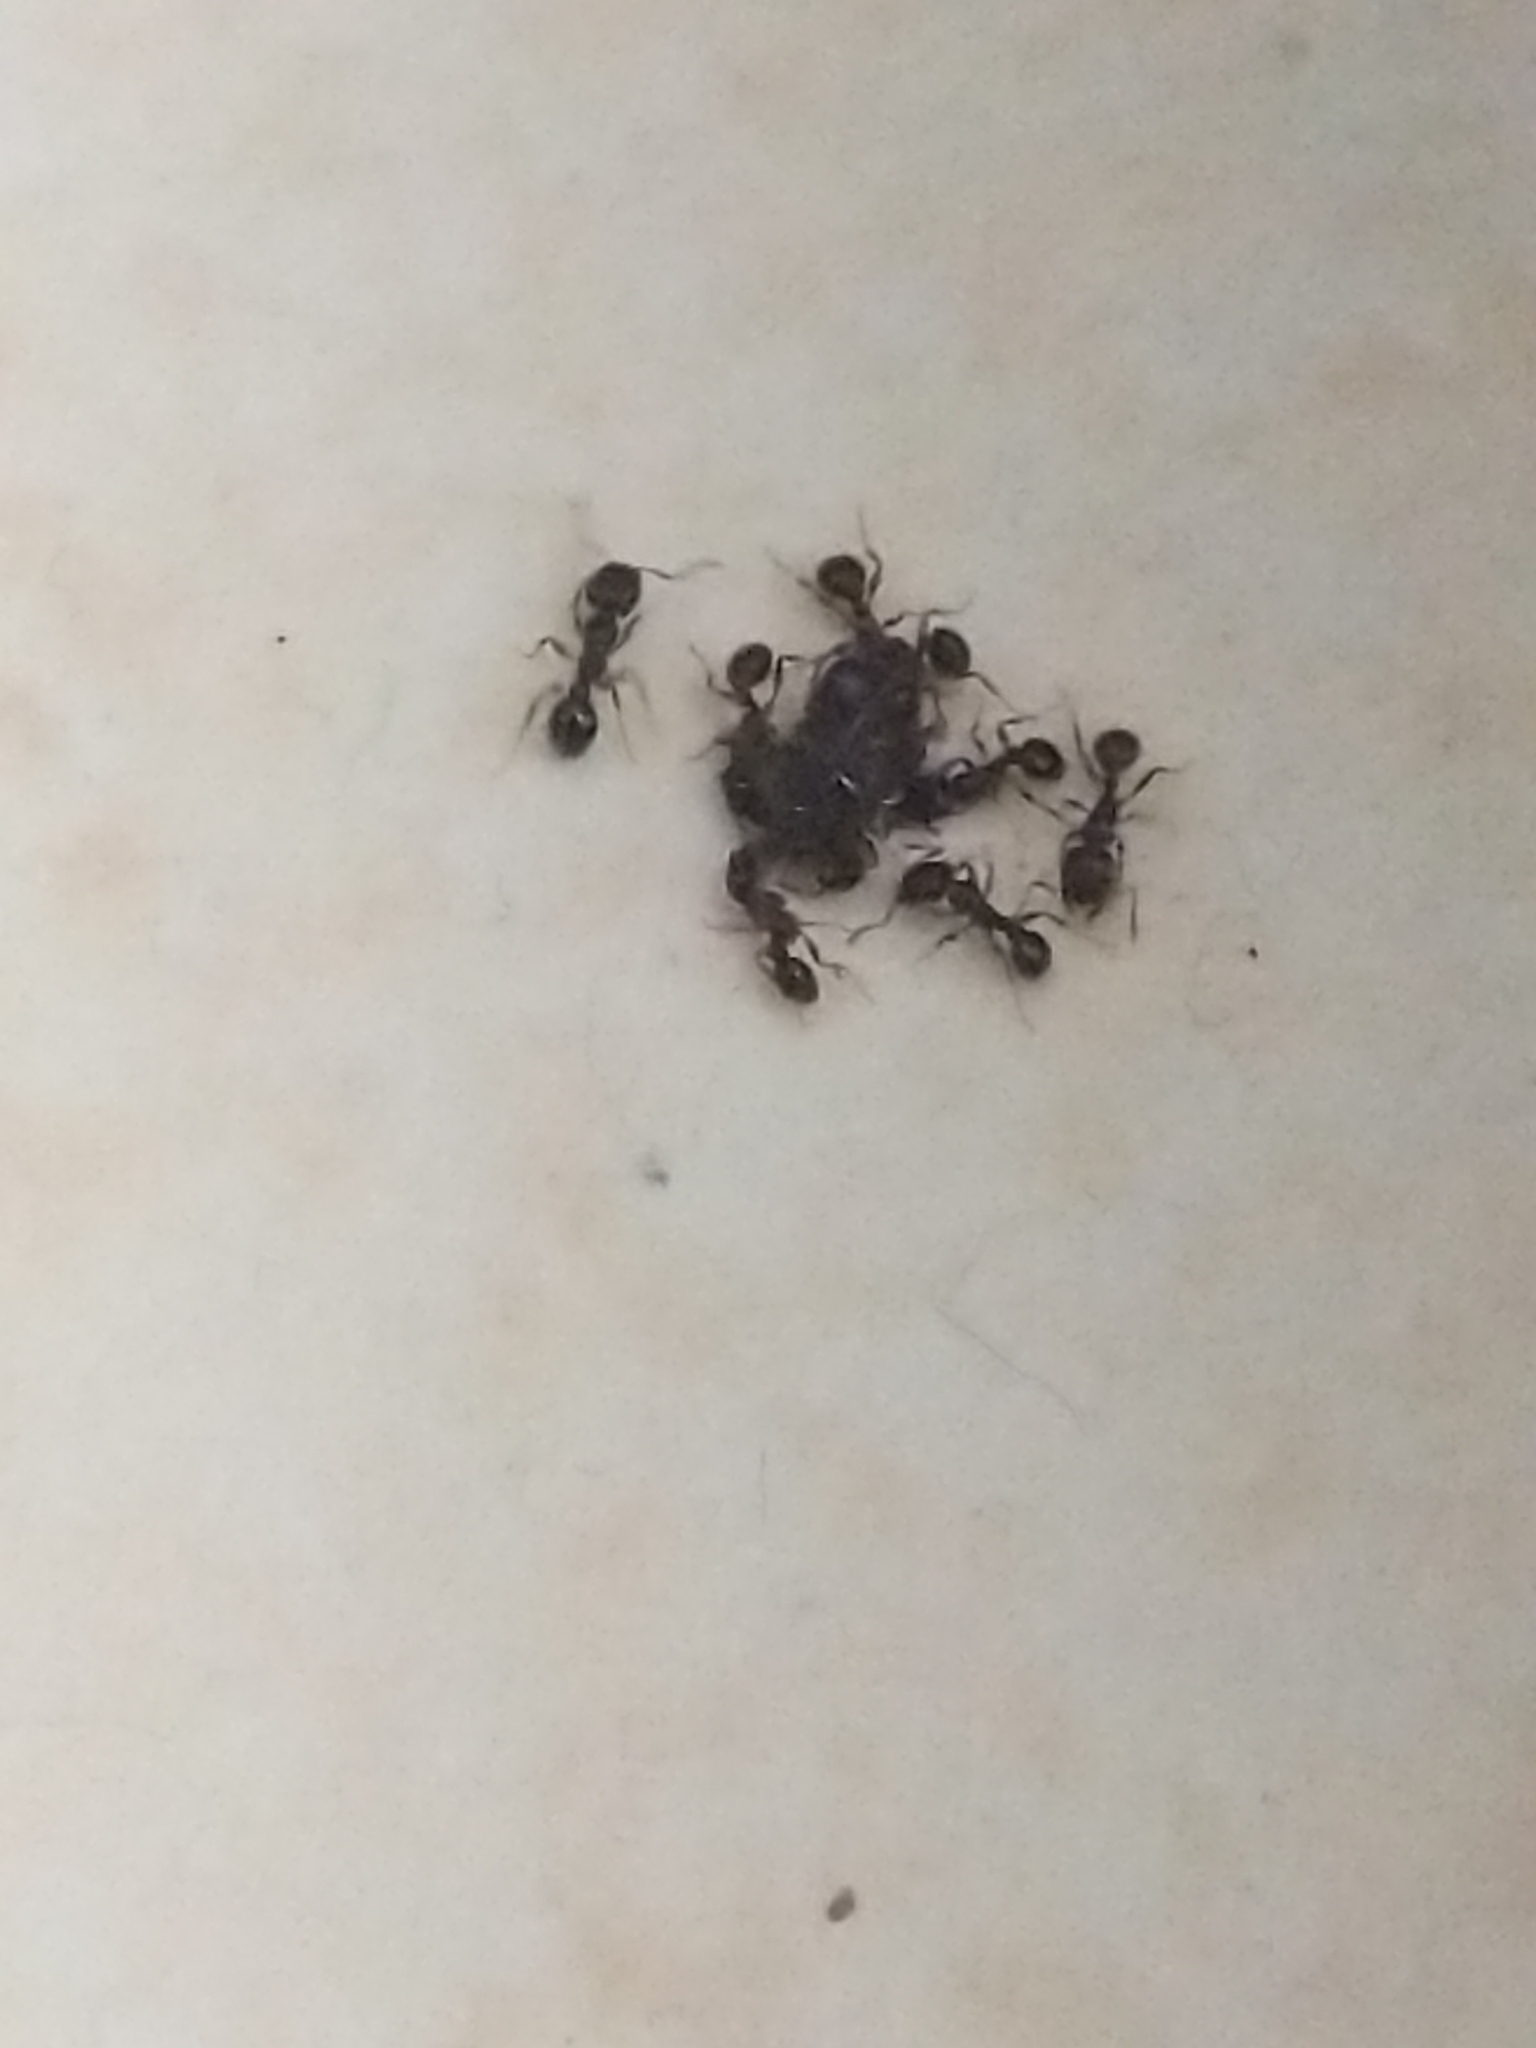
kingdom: Animalia
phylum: Arthropoda
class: Insecta
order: Hymenoptera
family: Formicidae
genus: Tetramorium
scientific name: Tetramorium
